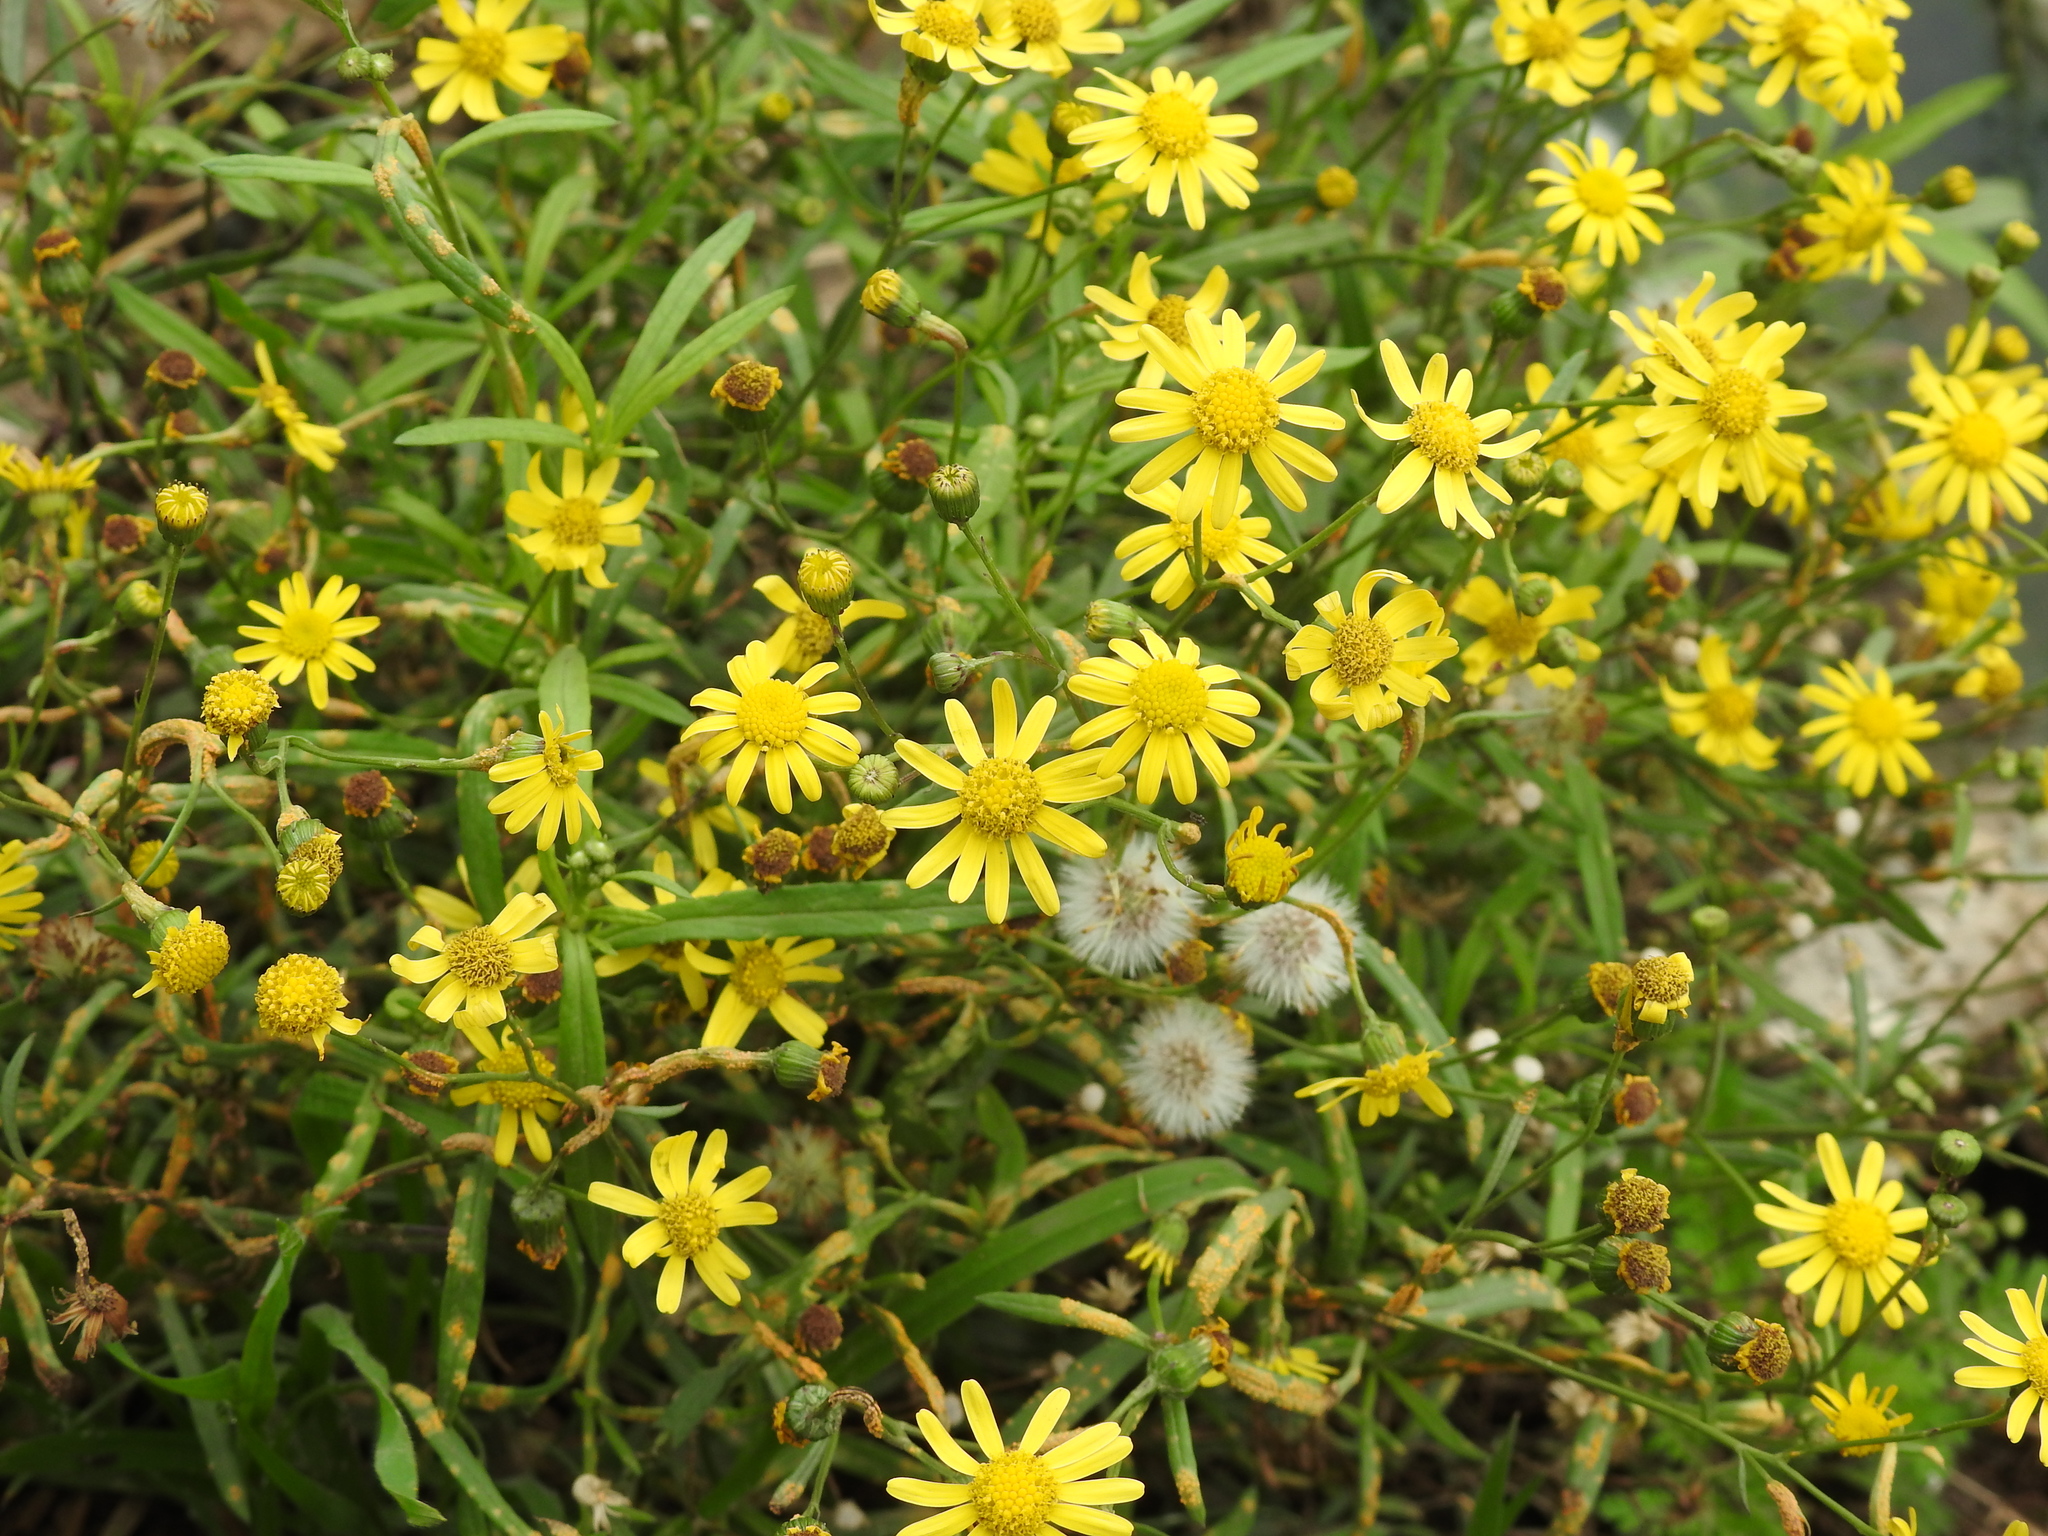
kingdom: Plantae
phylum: Tracheophyta
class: Magnoliopsida
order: Asterales
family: Asteraceae
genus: Senecio
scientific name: Senecio madagascariensis
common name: Madagascar ragwort
